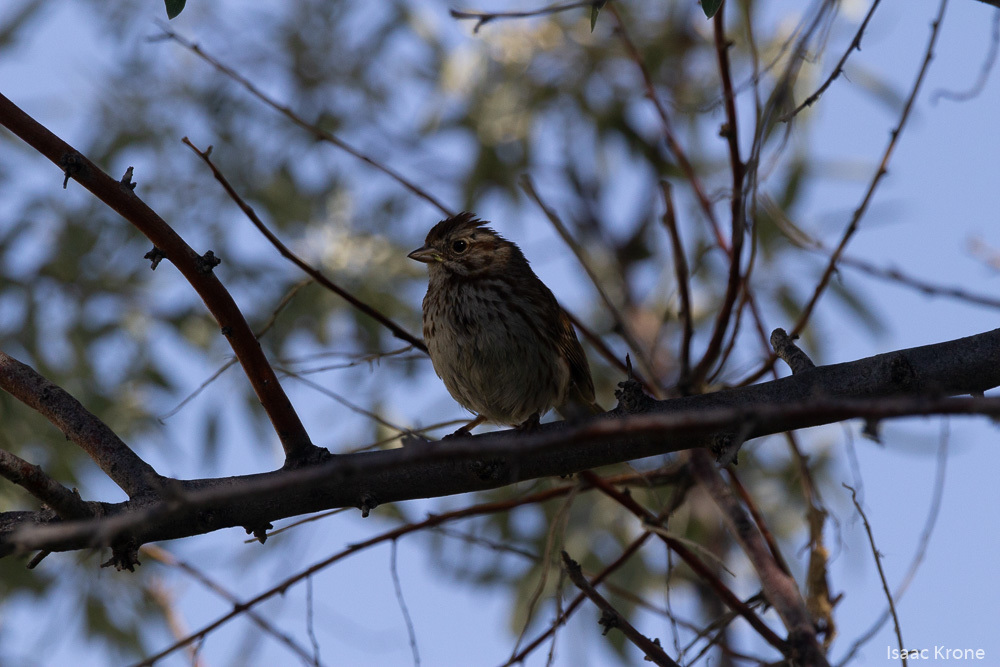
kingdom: Animalia
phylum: Chordata
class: Aves
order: Passeriformes
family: Passerellidae
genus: Melospiza
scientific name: Melospiza melodia
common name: Song sparrow
